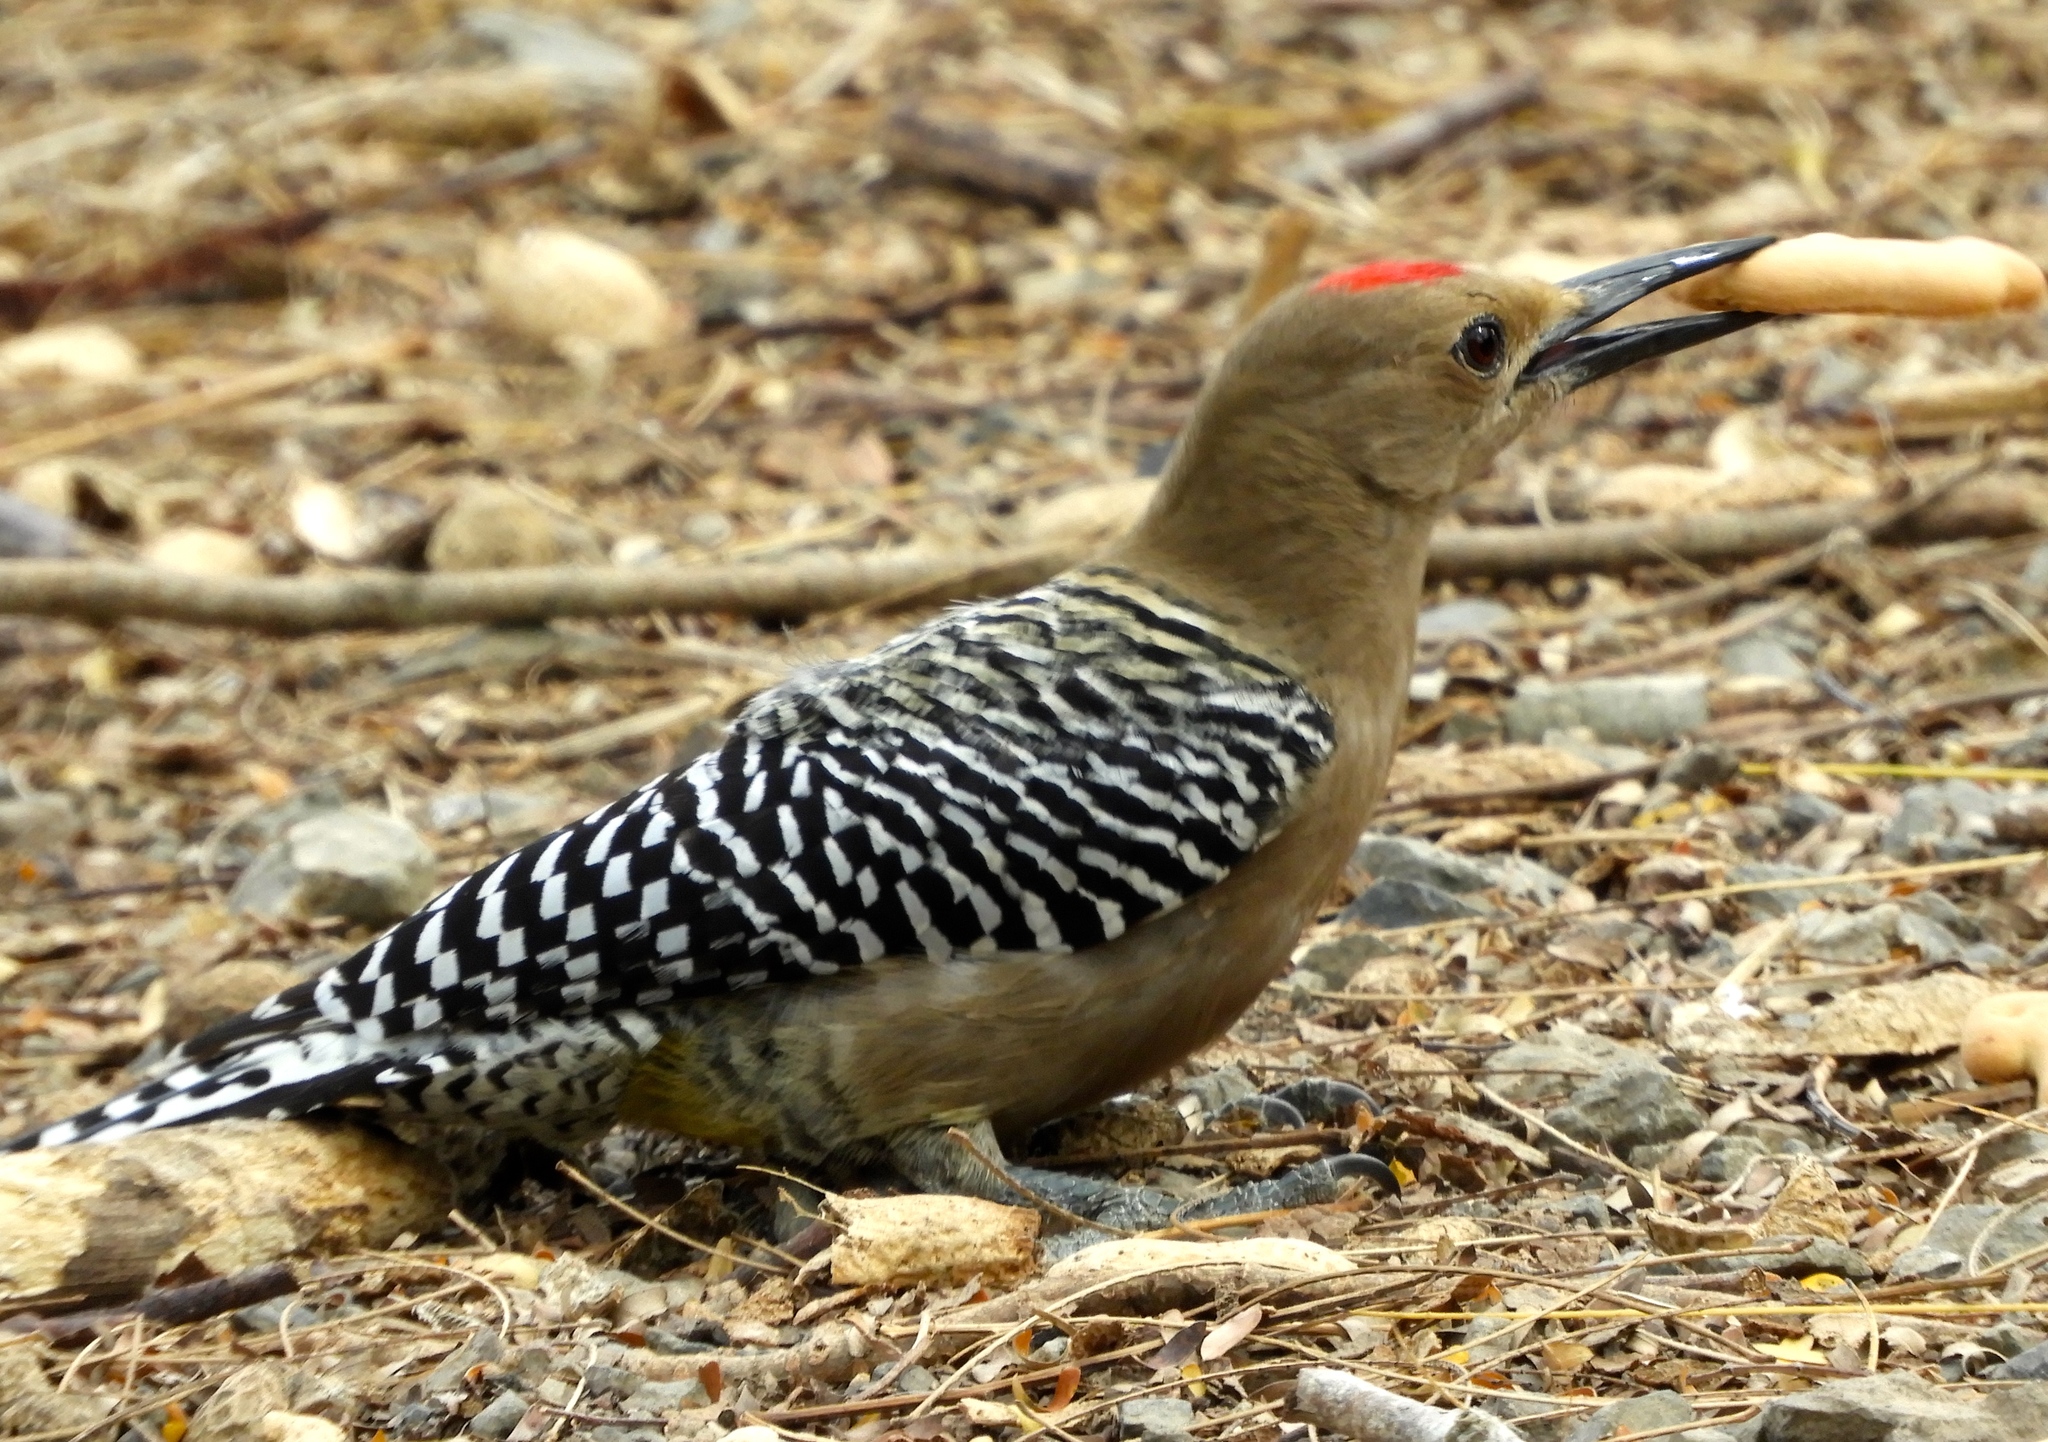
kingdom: Animalia
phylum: Chordata
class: Aves
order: Piciformes
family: Picidae
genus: Melanerpes
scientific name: Melanerpes uropygialis
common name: Gila woodpecker
